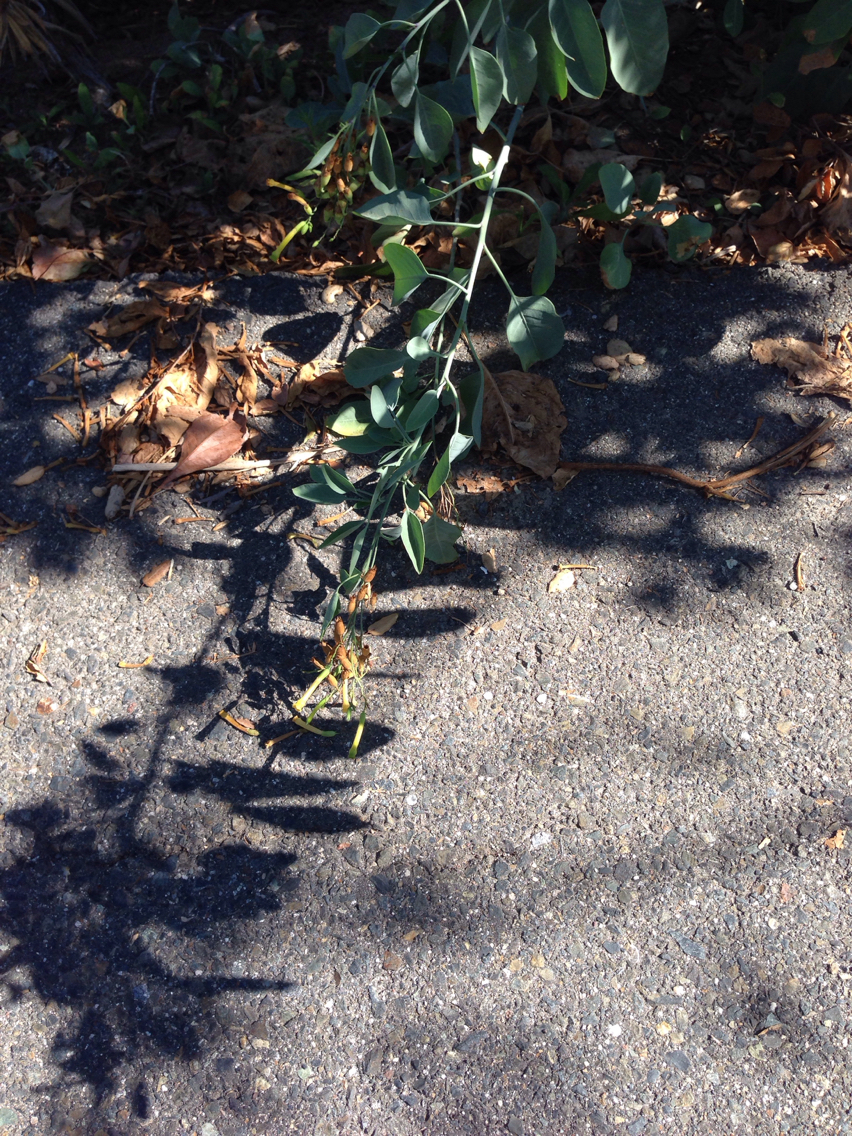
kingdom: Plantae
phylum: Tracheophyta
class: Magnoliopsida
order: Solanales
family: Solanaceae
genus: Nicotiana
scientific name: Nicotiana glauca
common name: Tree tobacco
